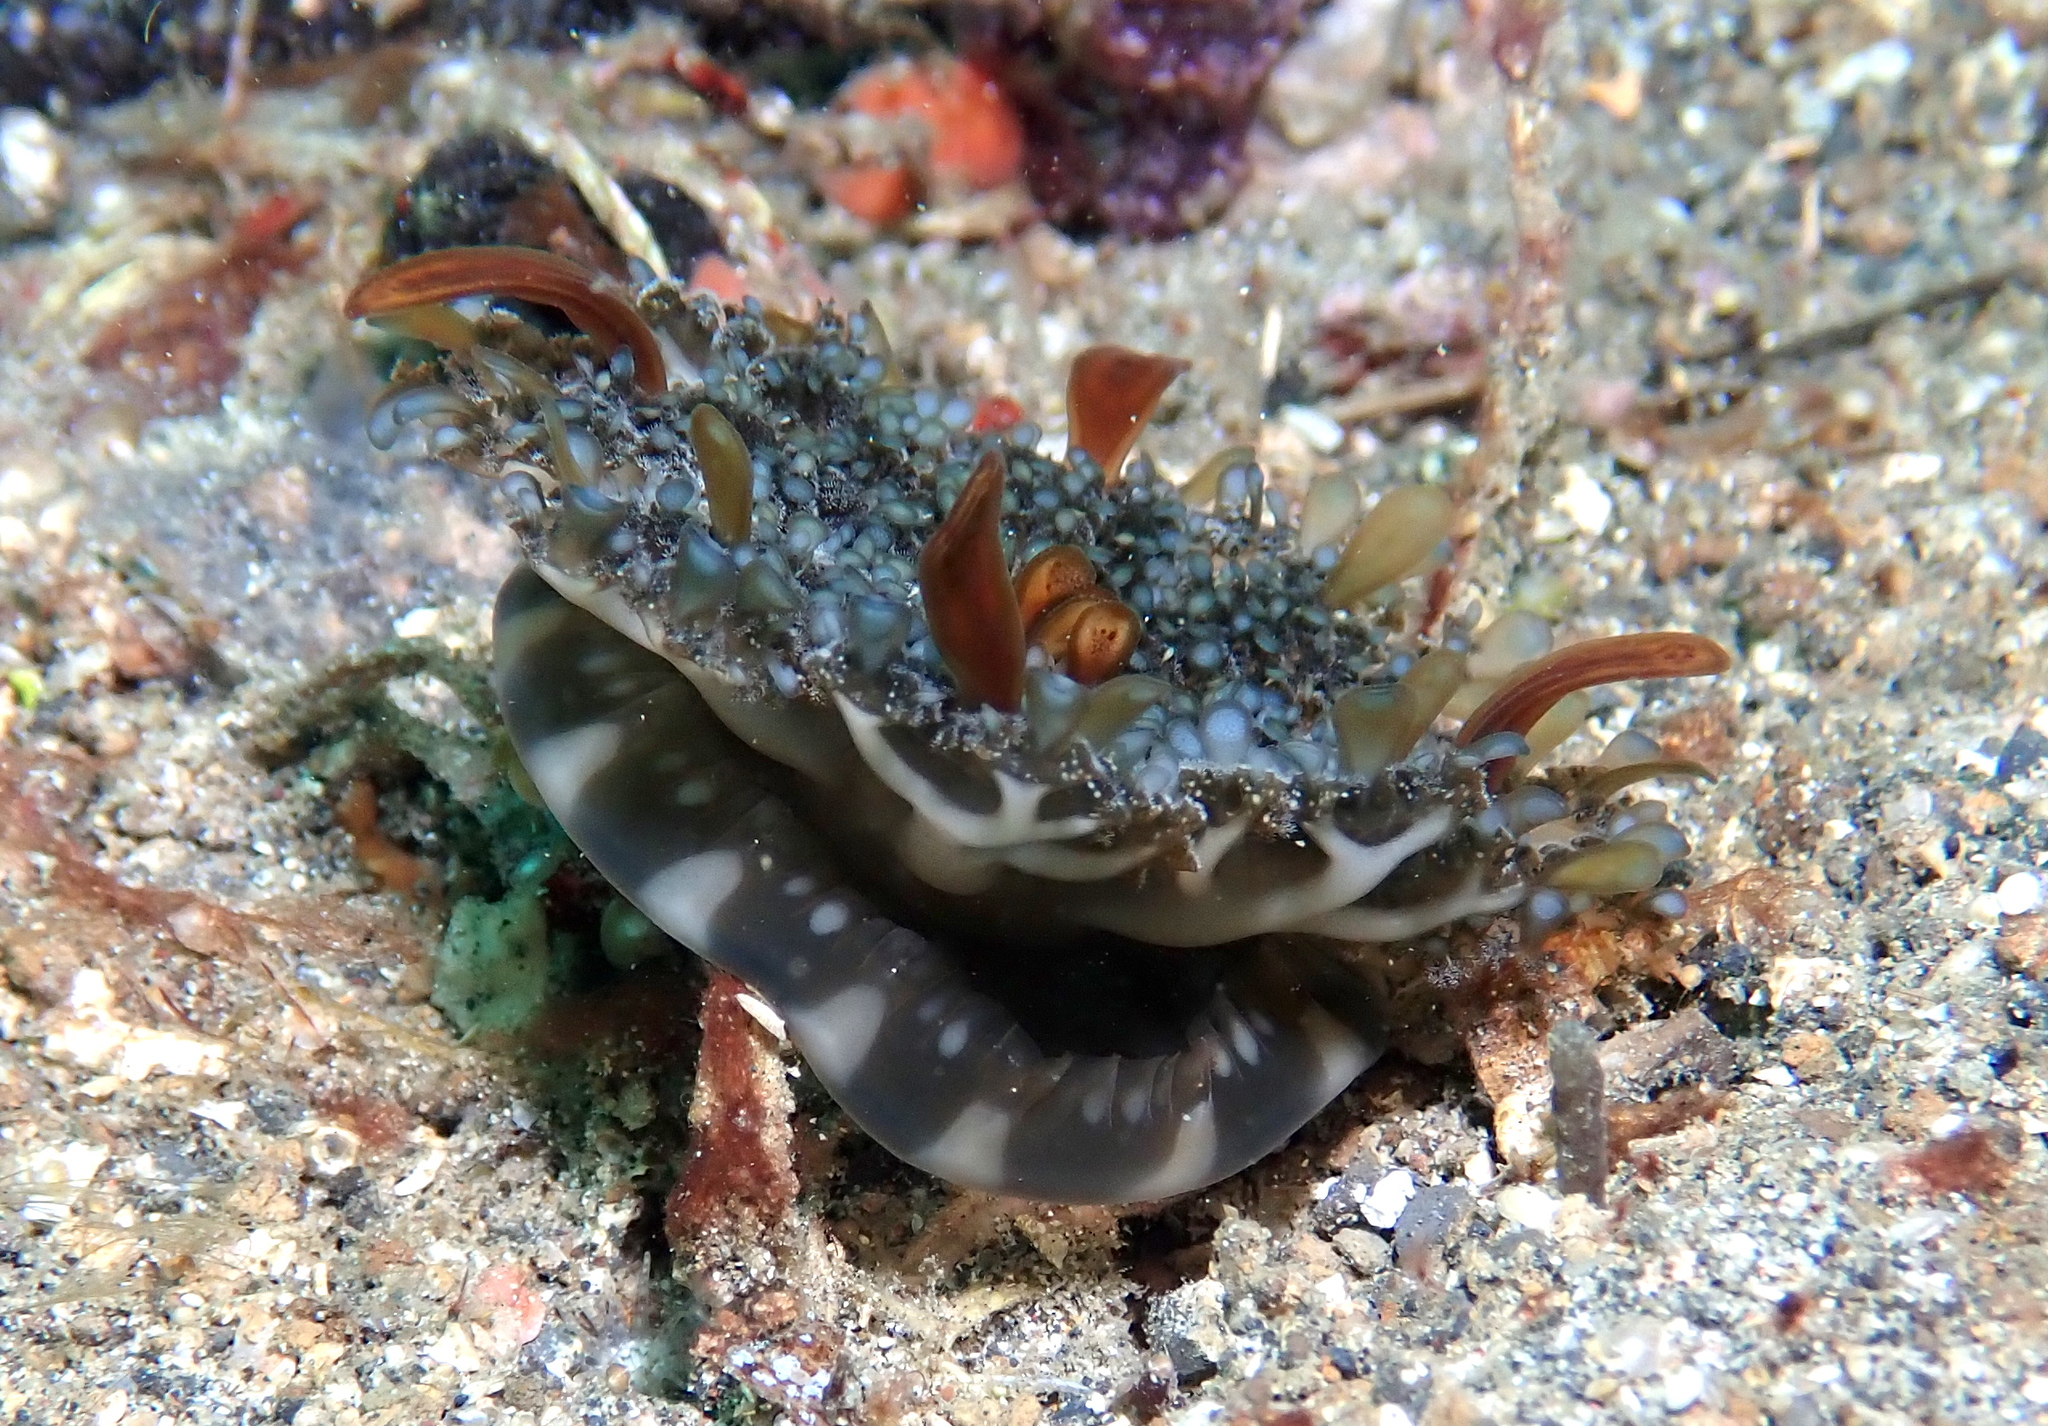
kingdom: Animalia
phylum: Cnidaria
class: Scyphozoa
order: Rhizostomeae
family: Cassiopeidae
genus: Cassiopea
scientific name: Cassiopea andromeda
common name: Upside-down jellyfish
